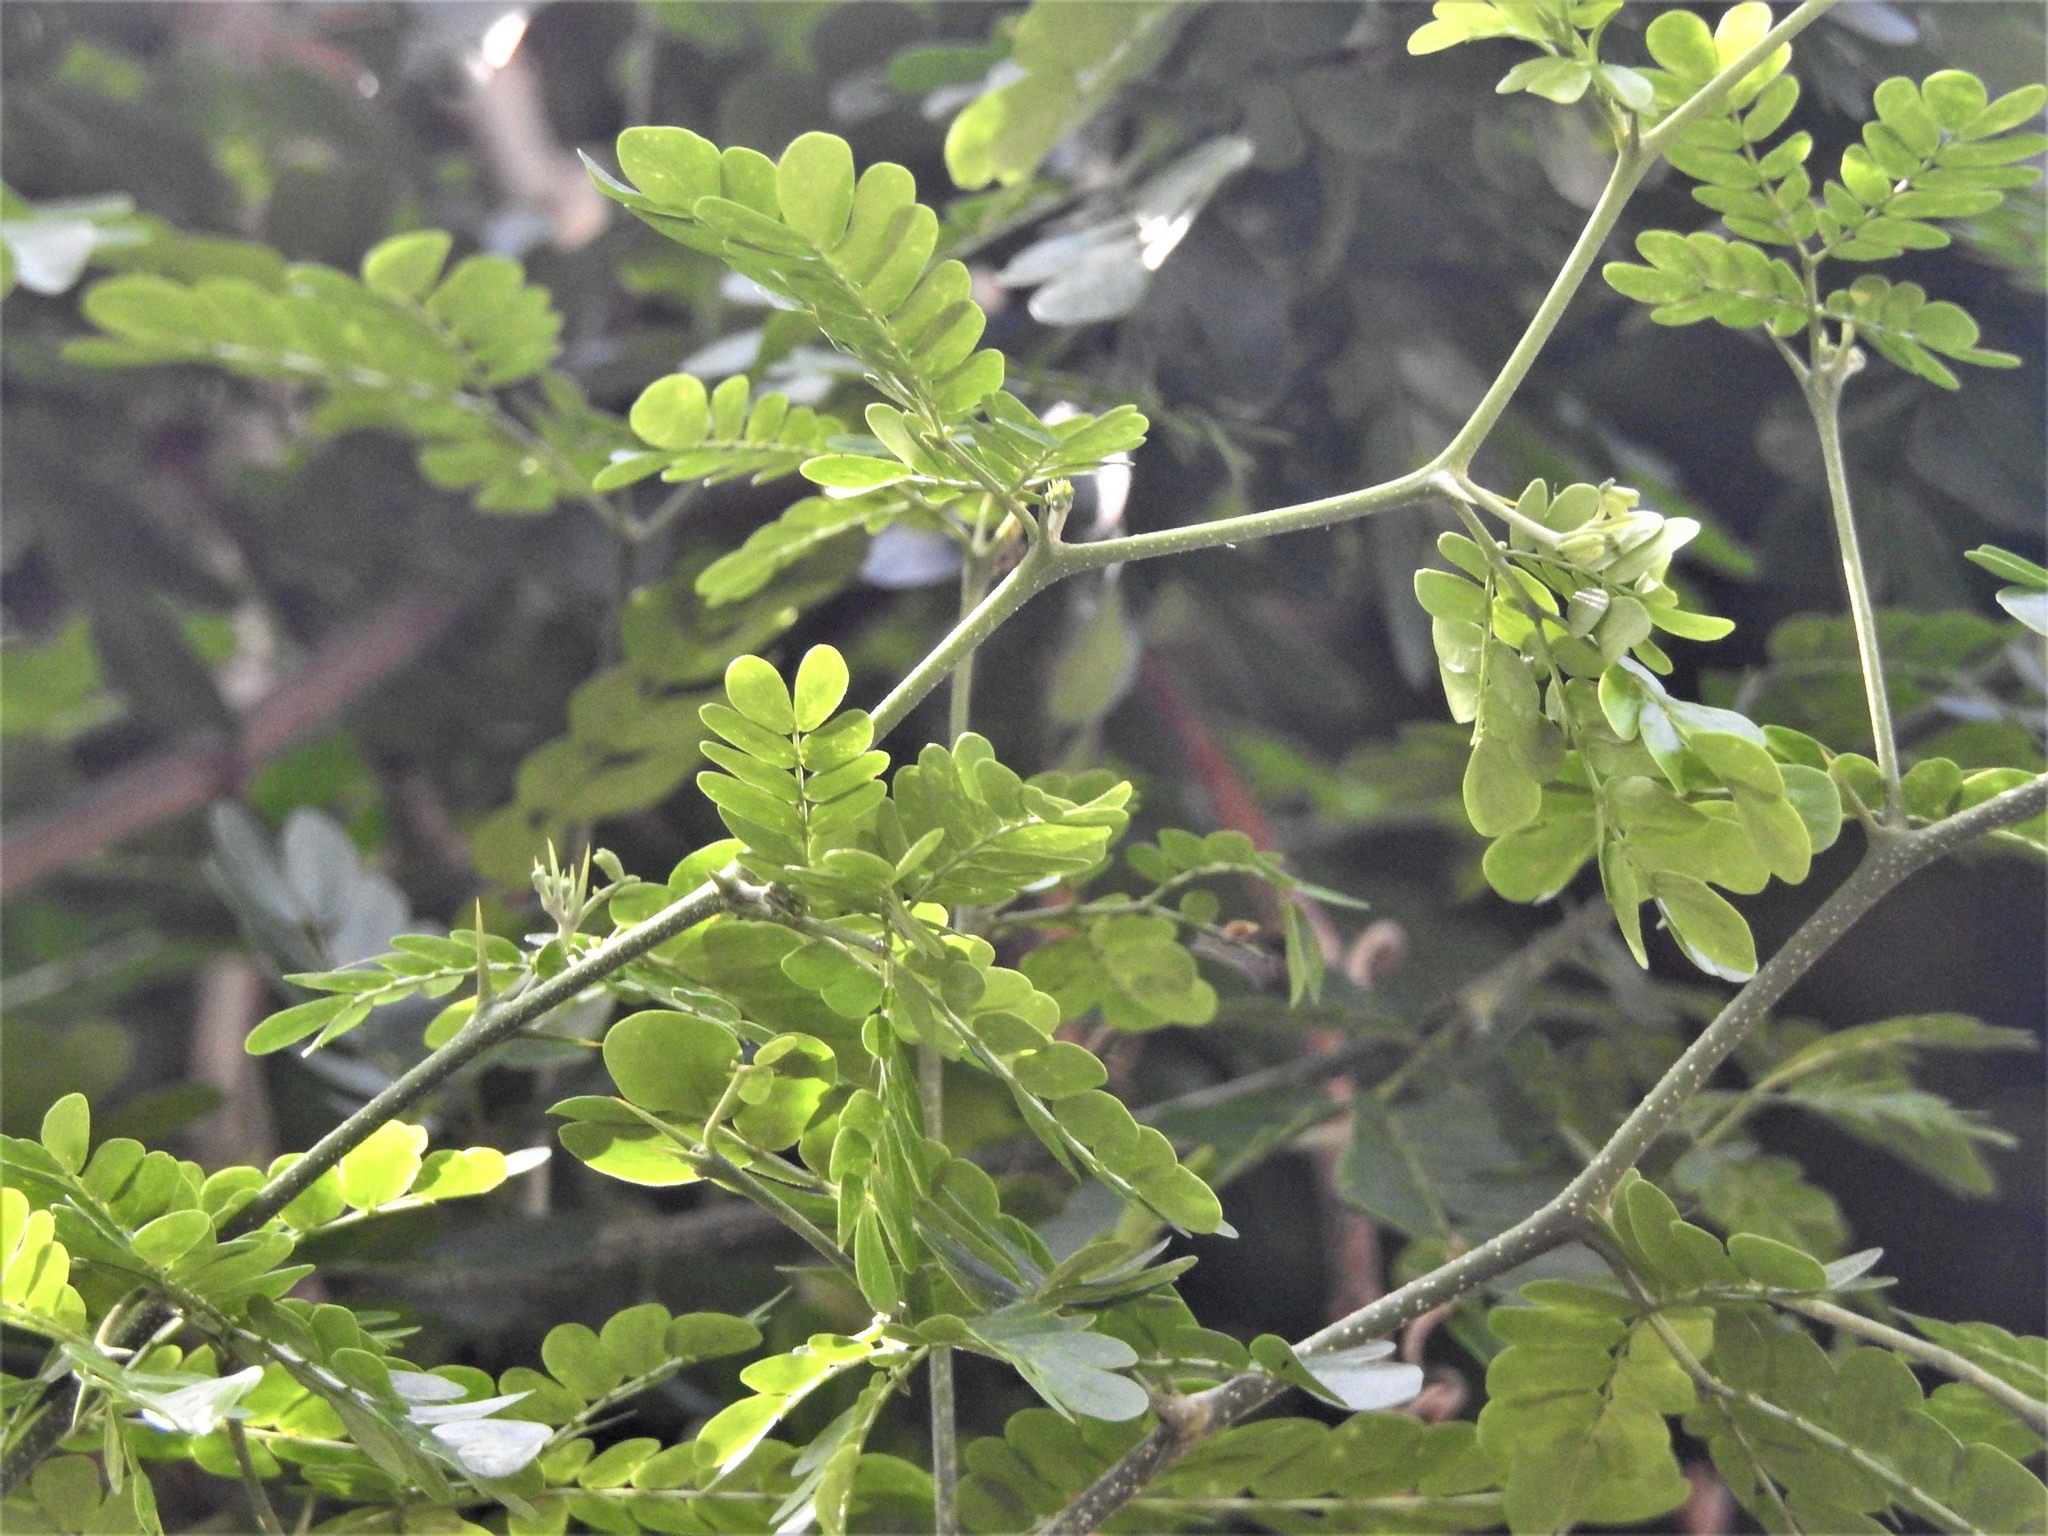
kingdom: Plantae
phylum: Tracheophyta
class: Magnoliopsida
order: Fabales
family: Fabaceae
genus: Ebenopsis
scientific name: Ebenopsis ebano
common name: Ebony blackbead
